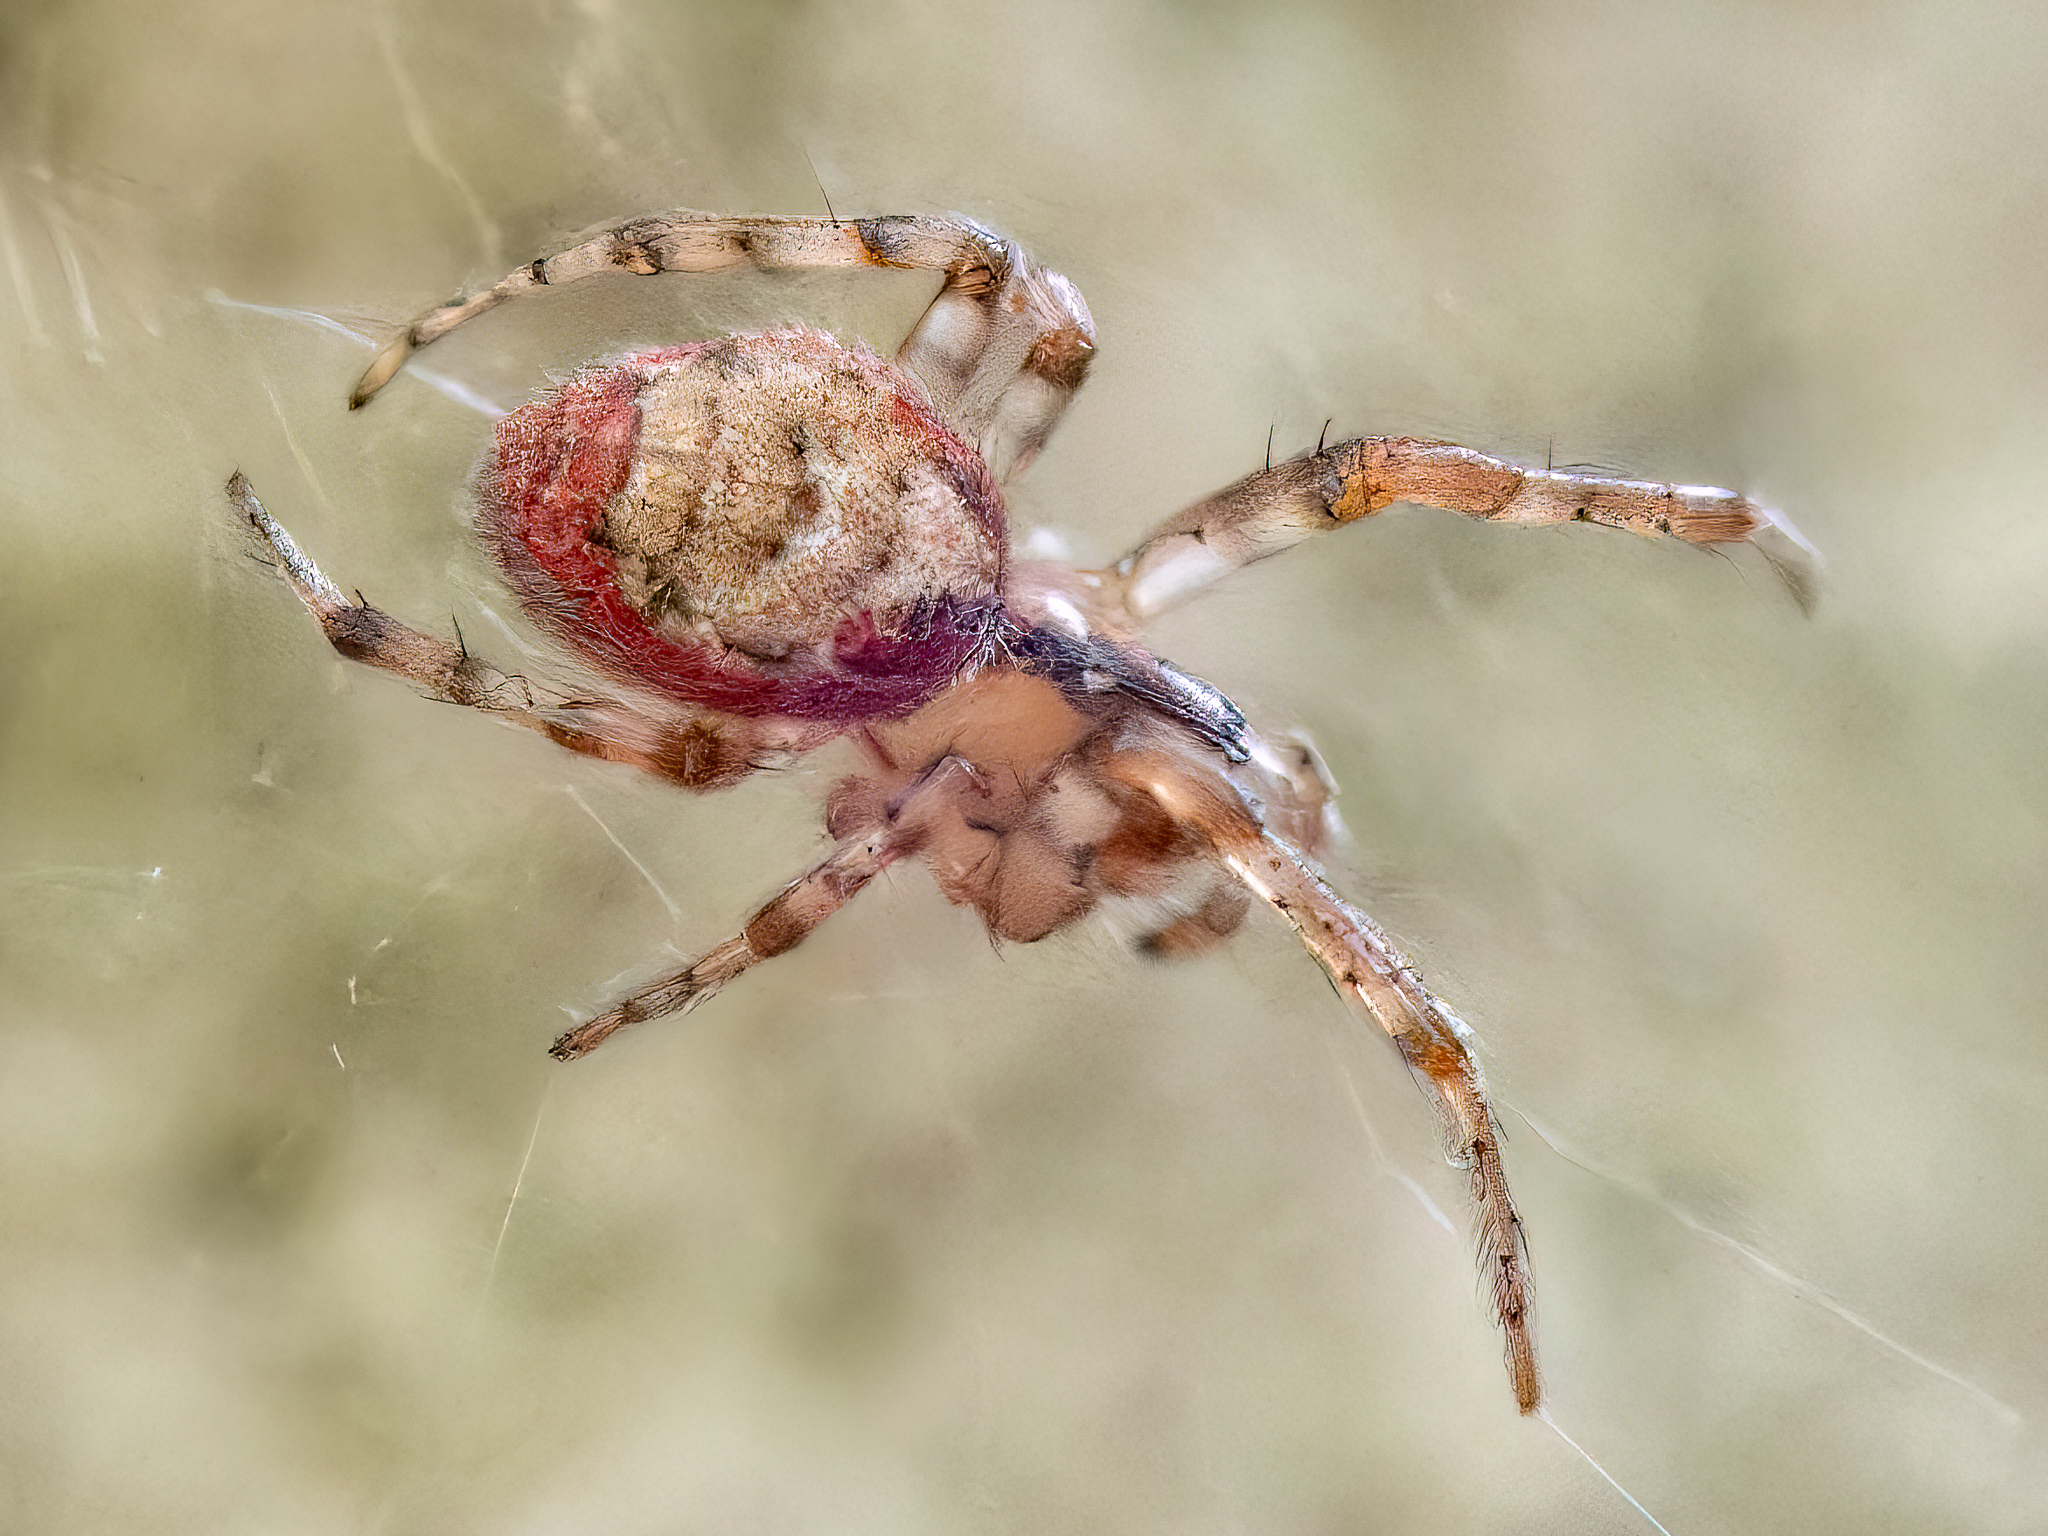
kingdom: Animalia
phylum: Arthropoda
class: Arachnida
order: Araneae
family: Araneidae
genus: Zygiella
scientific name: Zygiella atrica
